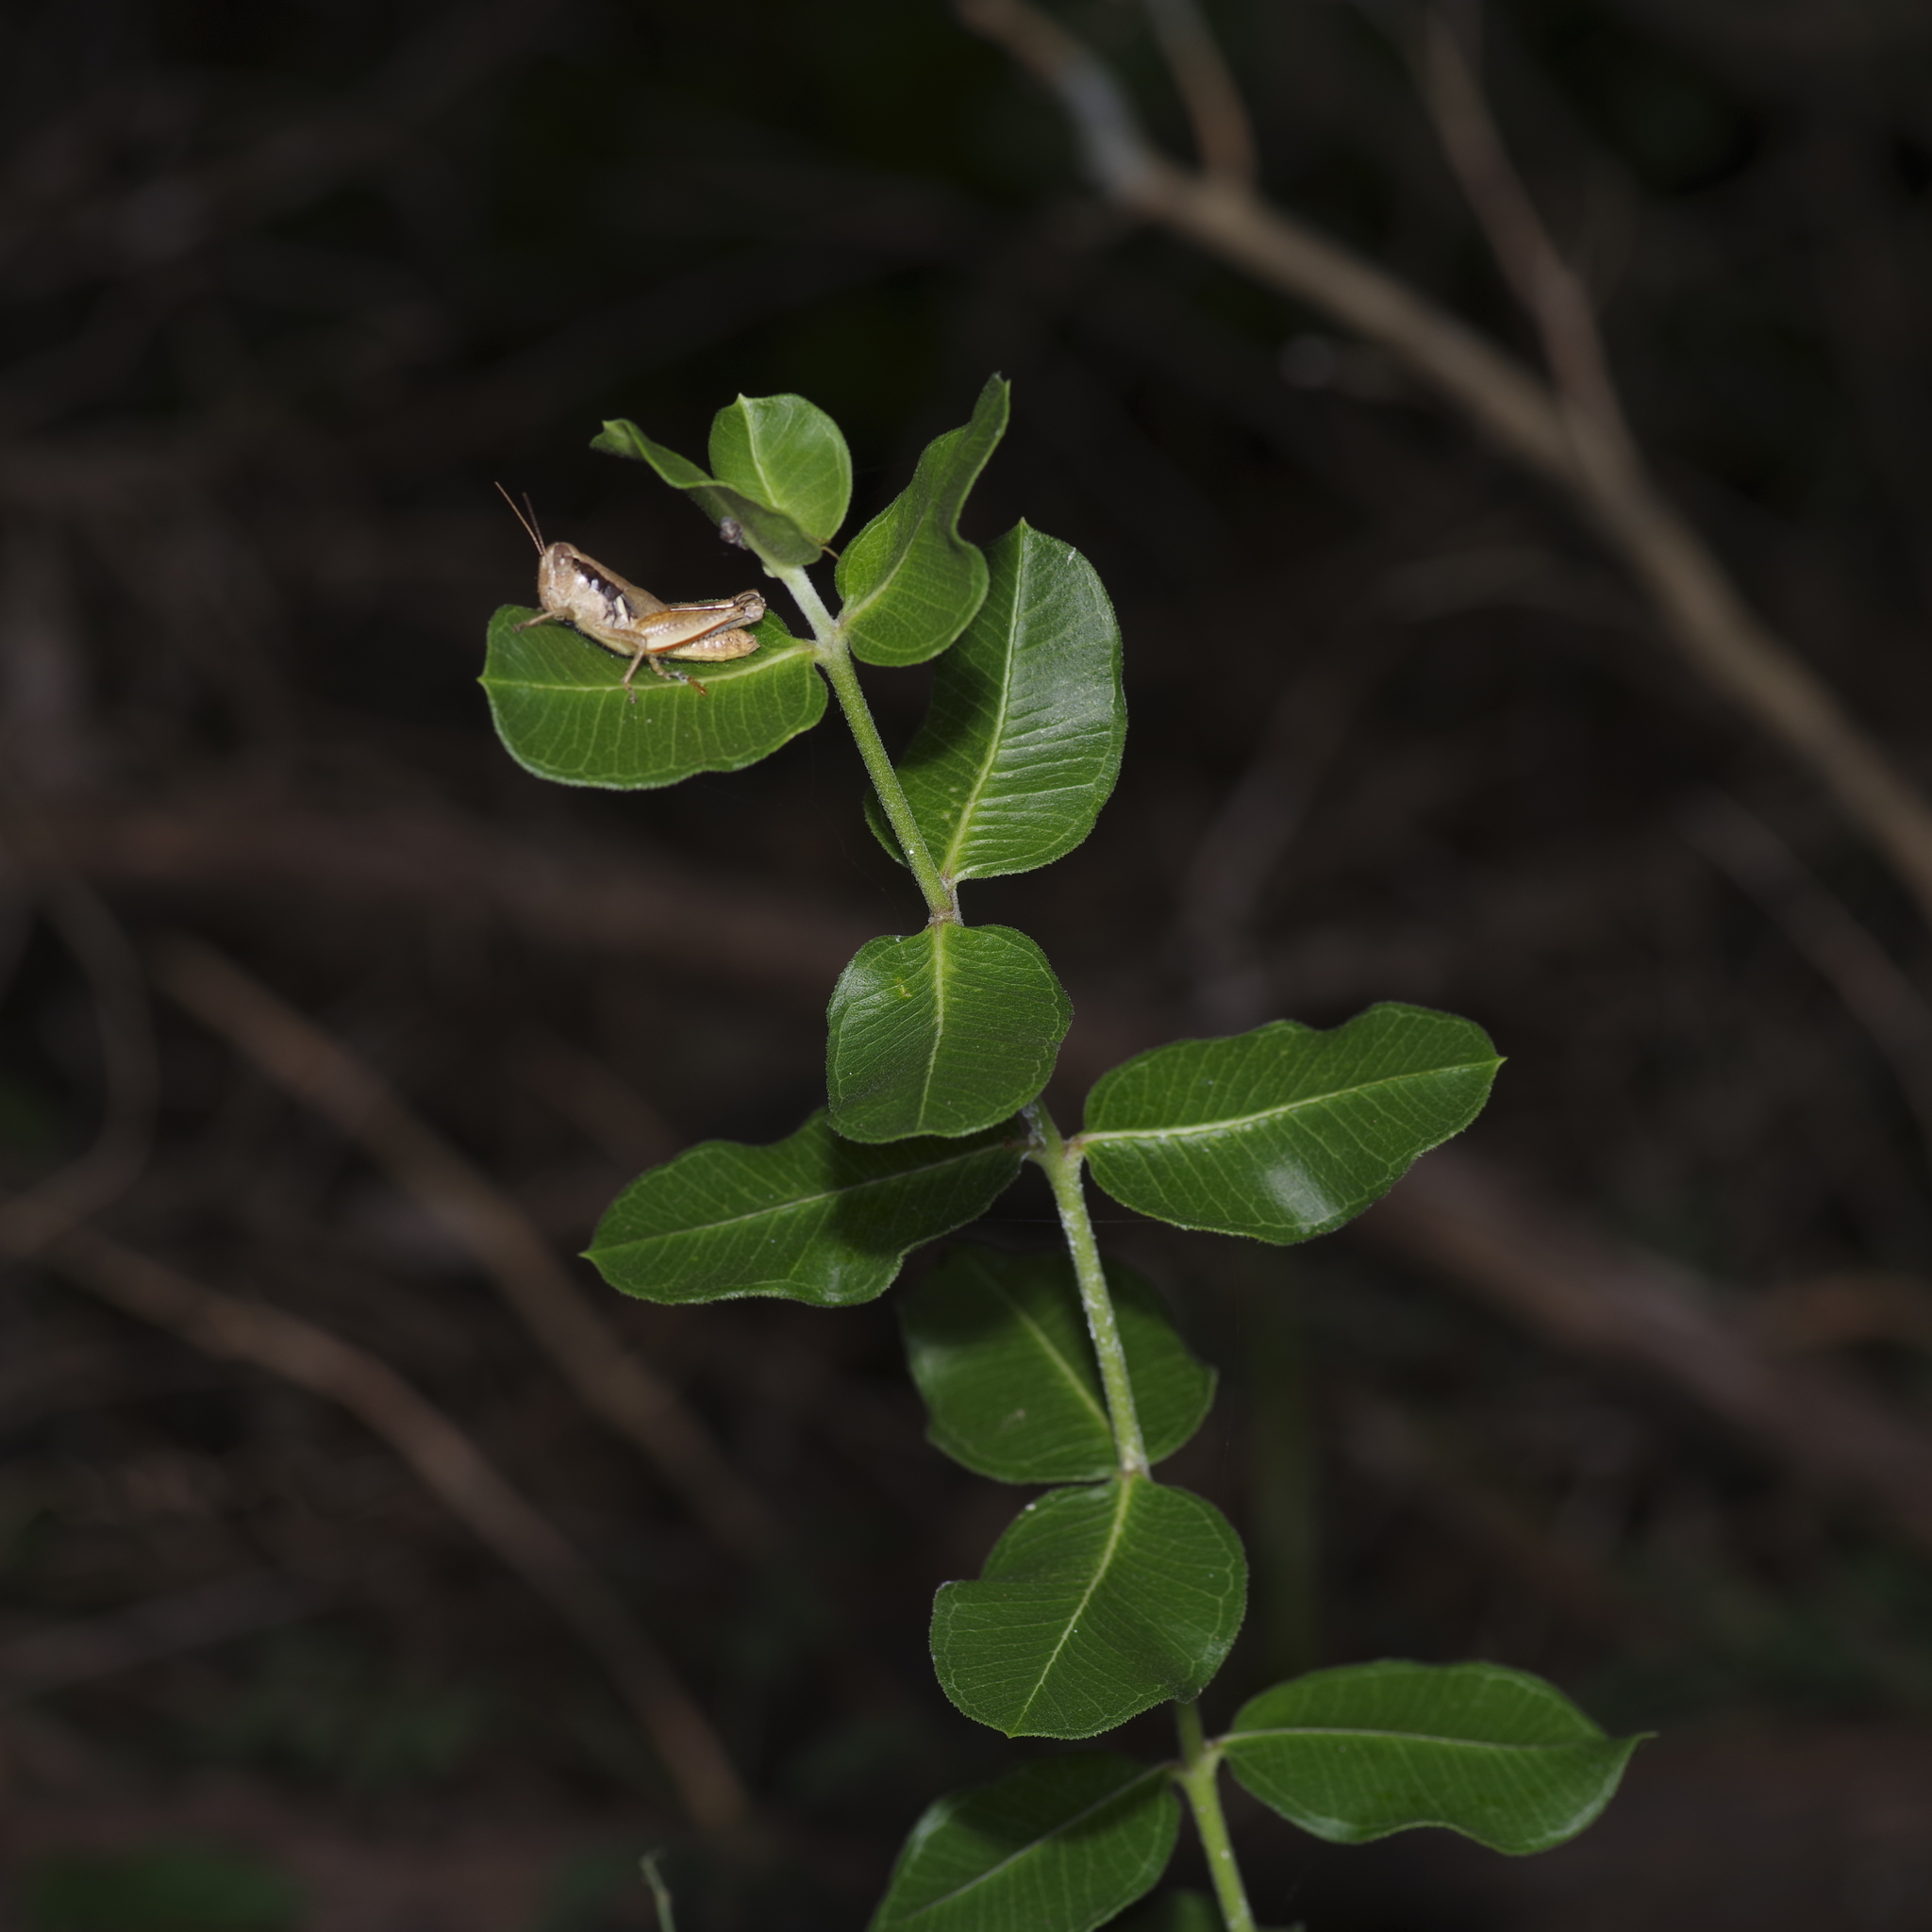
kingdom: Plantae
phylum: Tracheophyta
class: Magnoliopsida
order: Gentianales
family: Apocynaceae
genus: Asclepias
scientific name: Asclepias viridiflora
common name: Green comet milkweed
